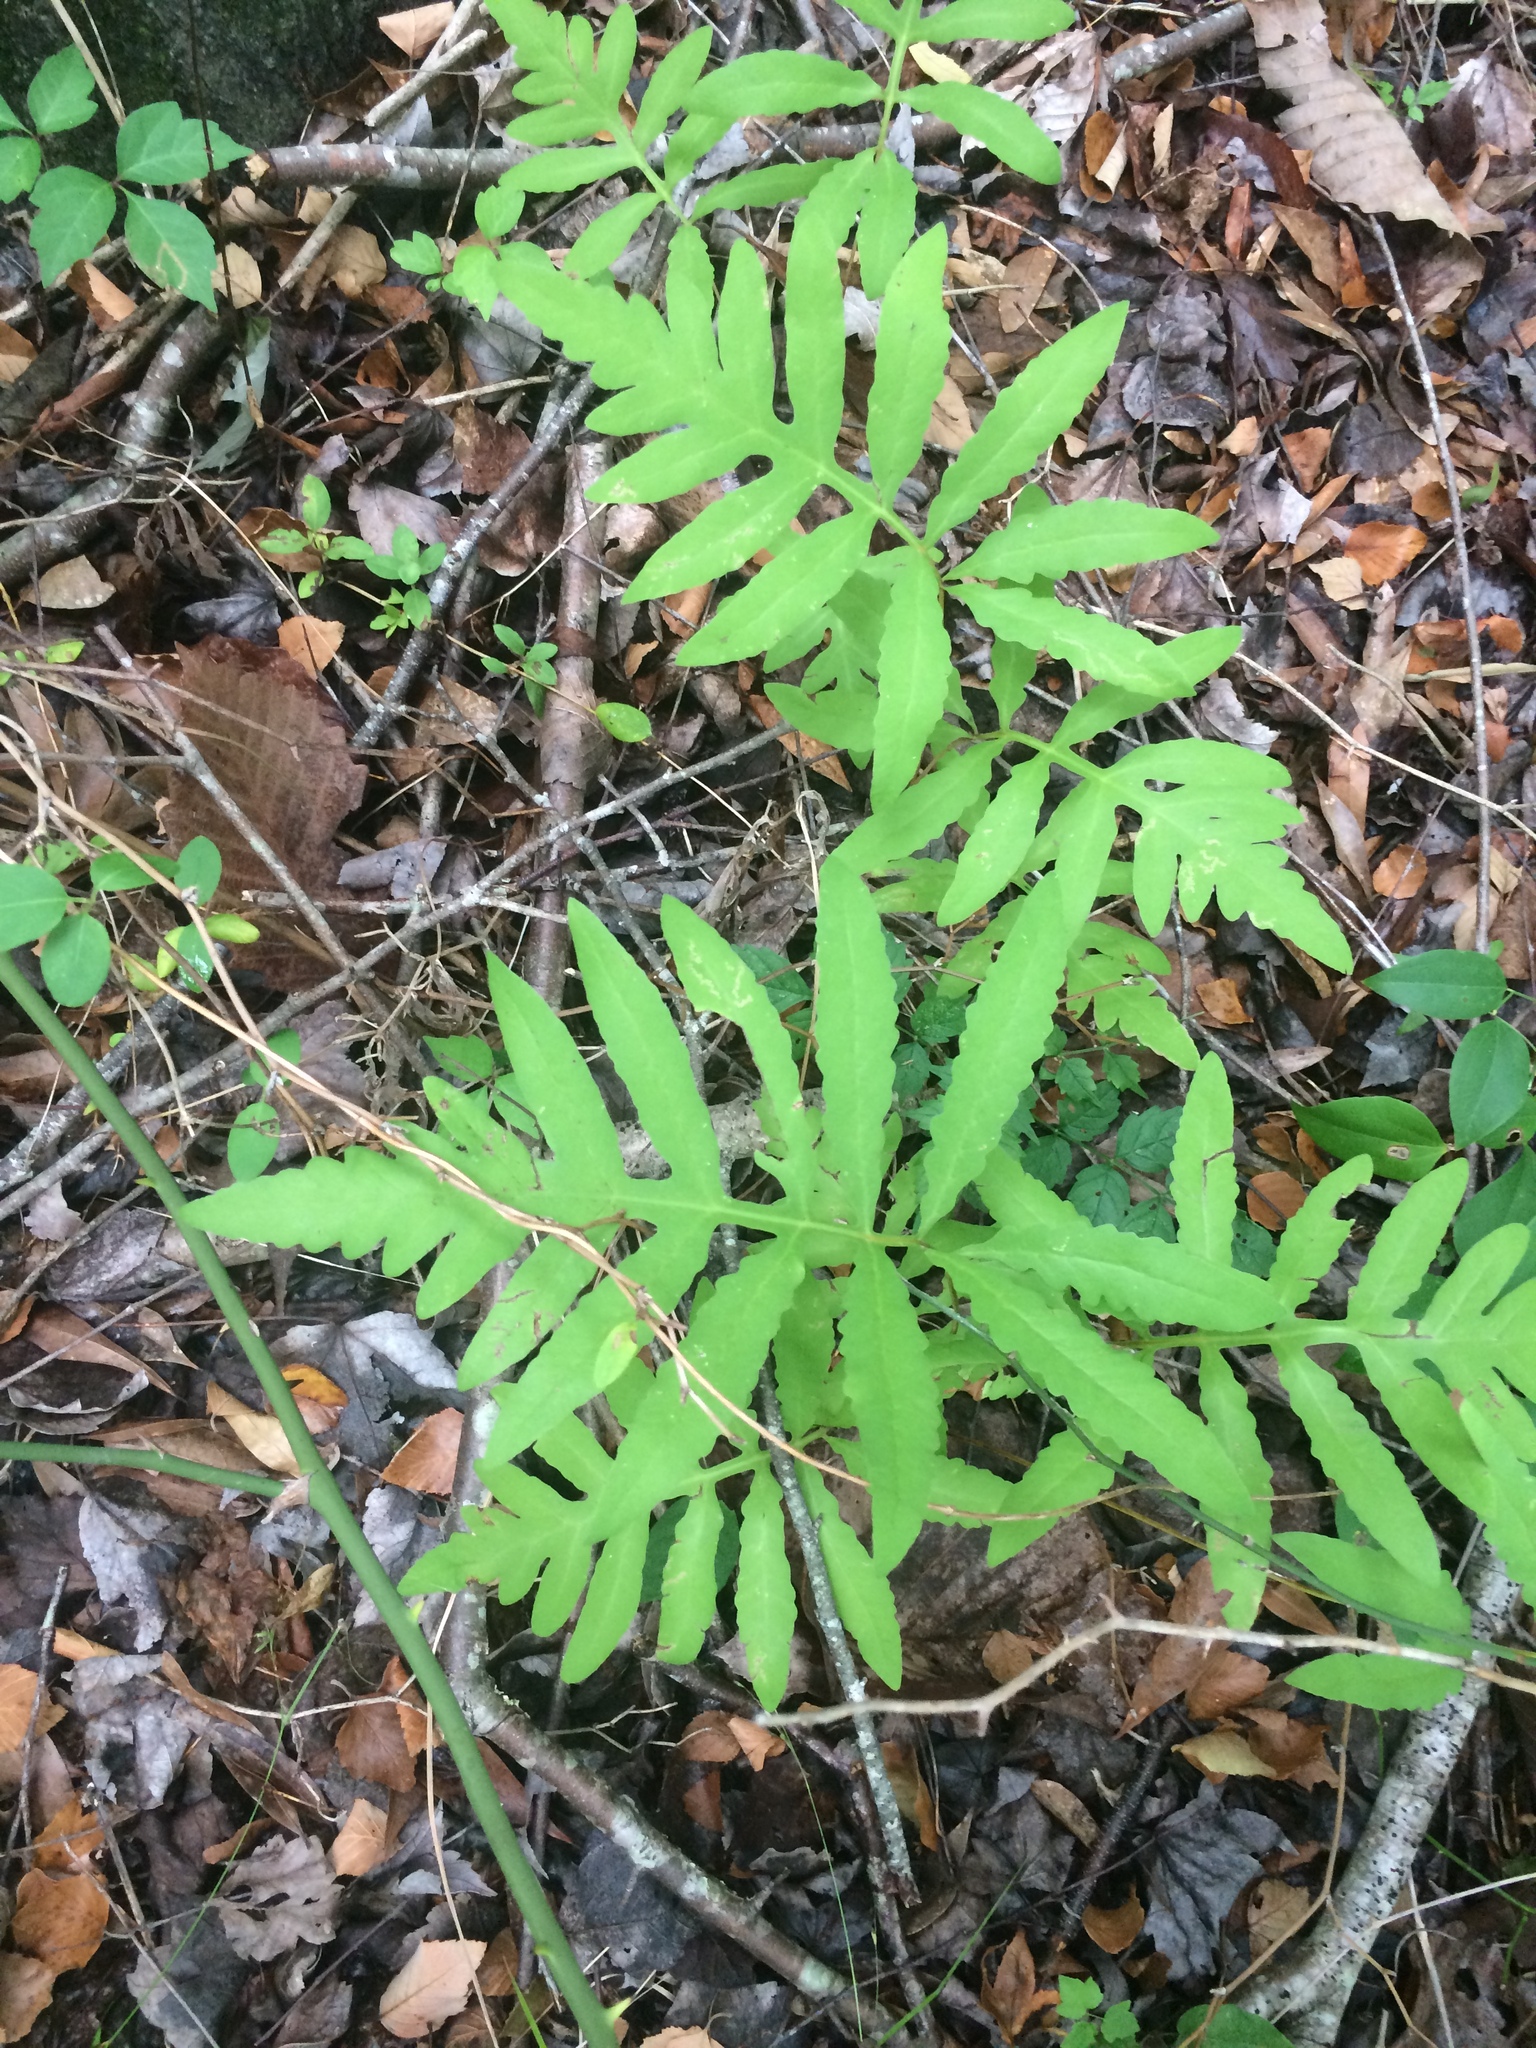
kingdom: Plantae
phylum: Tracheophyta
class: Polypodiopsida
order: Polypodiales
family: Onocleaceae
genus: Onoclea
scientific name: Onoclea sensibilis
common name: Sensitive fern
